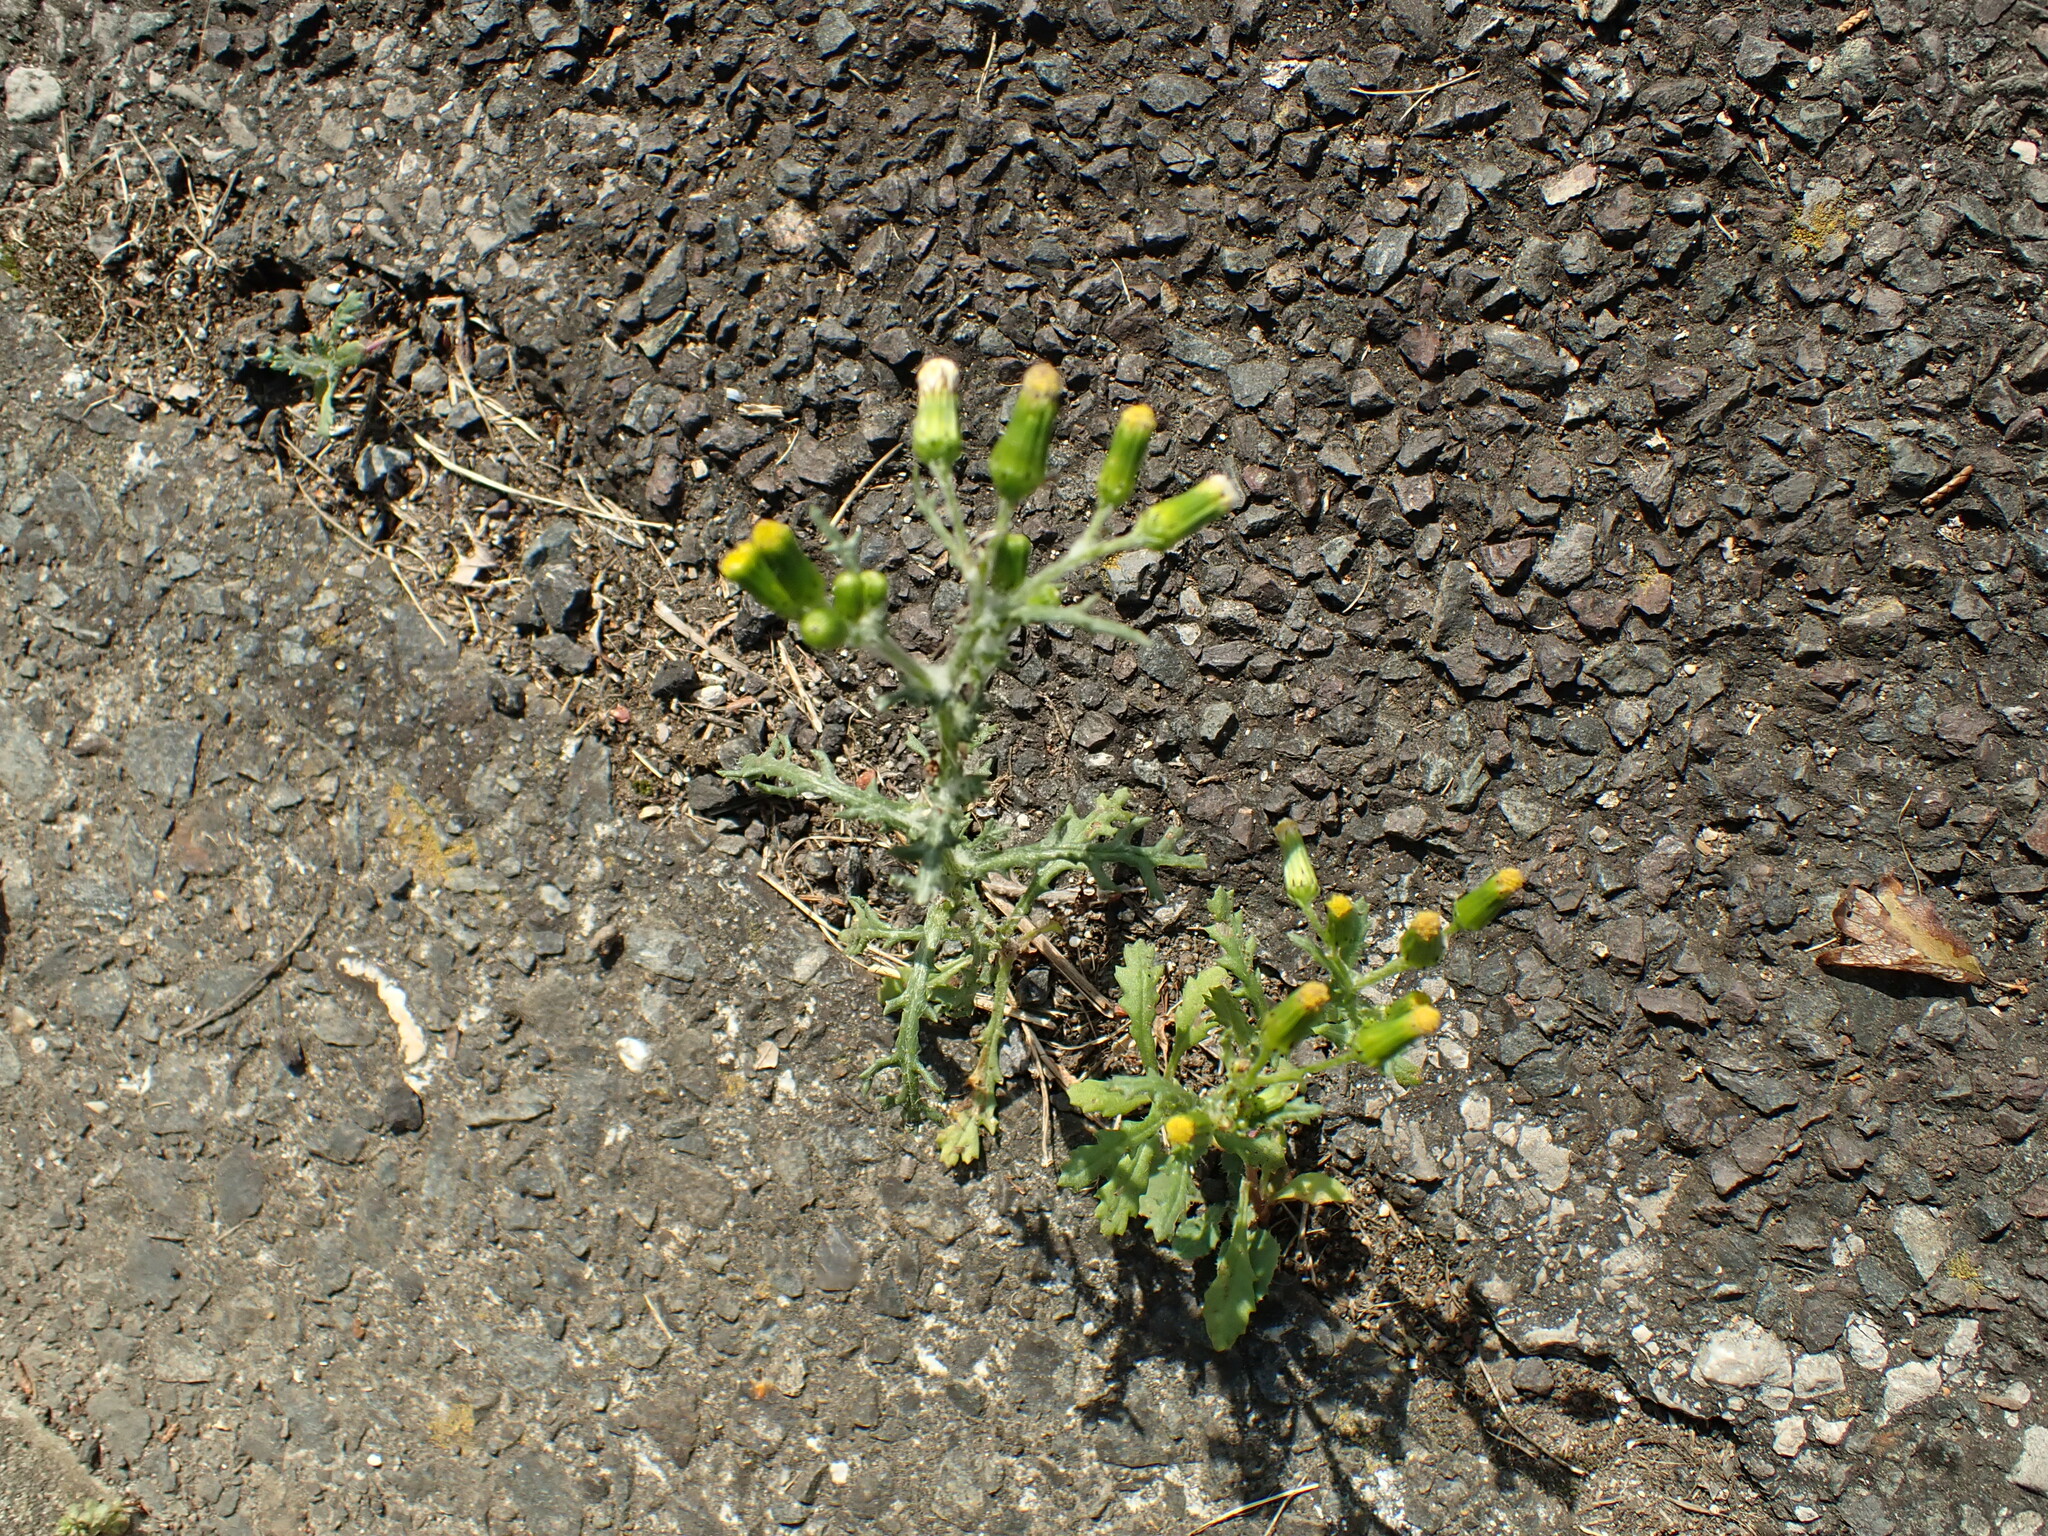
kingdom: Plantae
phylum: Tracheophyta
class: Magnoliopsida
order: Asterales
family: Asteraceae
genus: Senecio
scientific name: Senecio vulgaris
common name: Old-man-in-the-spring
